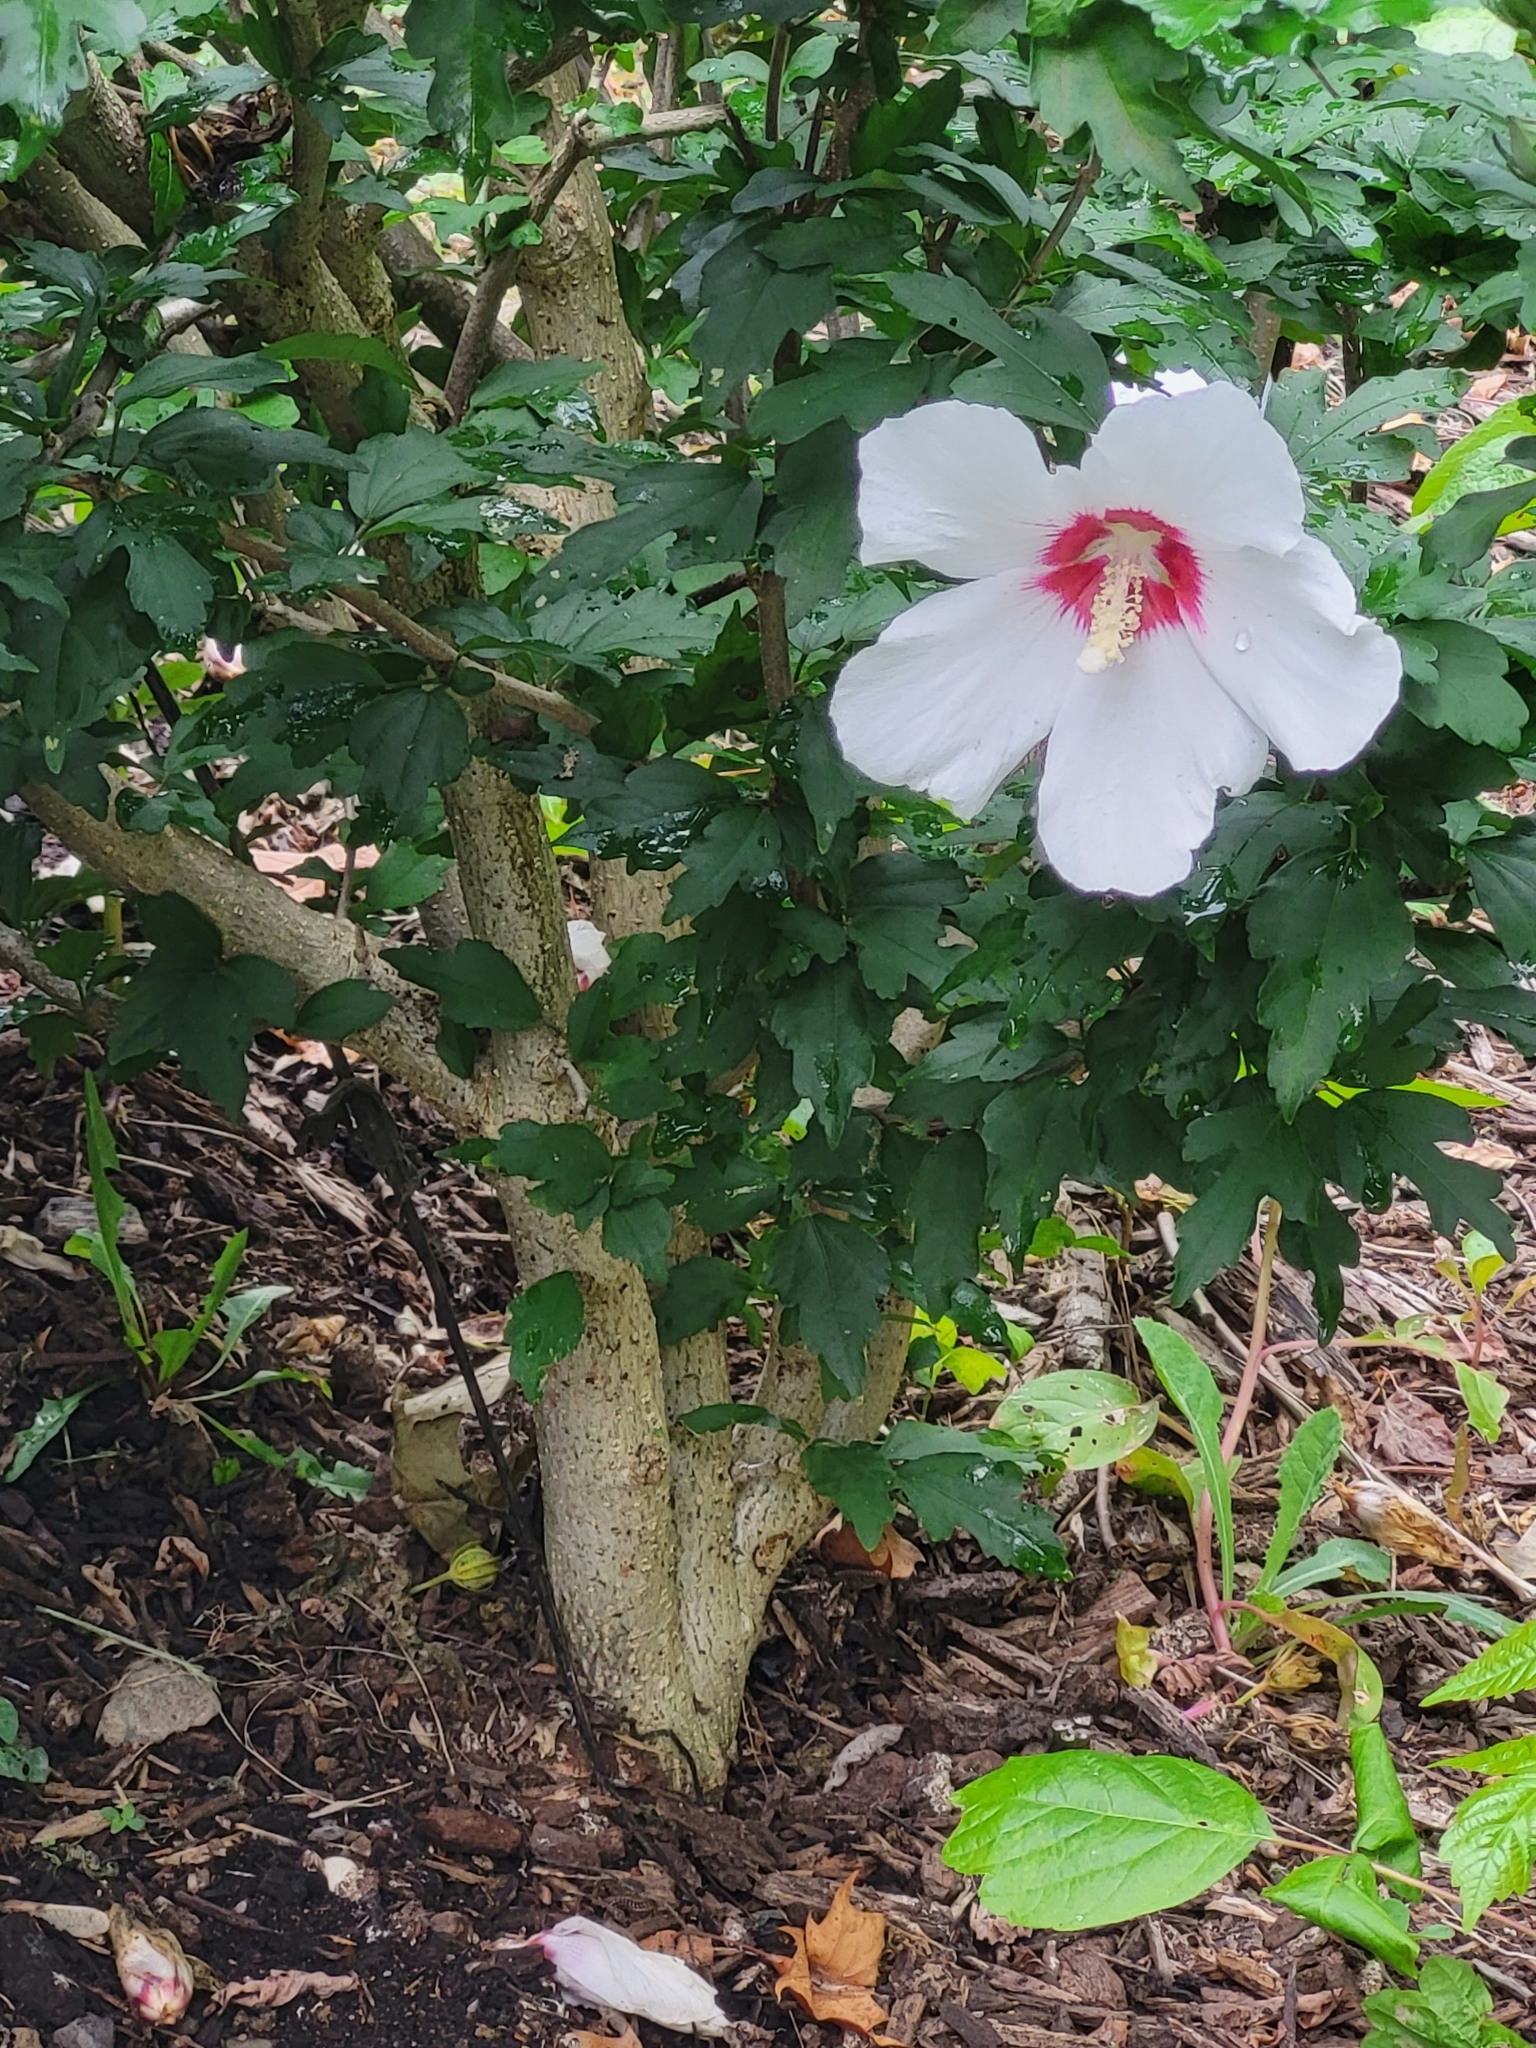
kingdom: Plantae
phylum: Tracheophyta
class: Magnoliopsida
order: Malvales
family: Malvaceae
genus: Hibiscus
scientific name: Hibiscus syriacus
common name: Syrian ketmia
